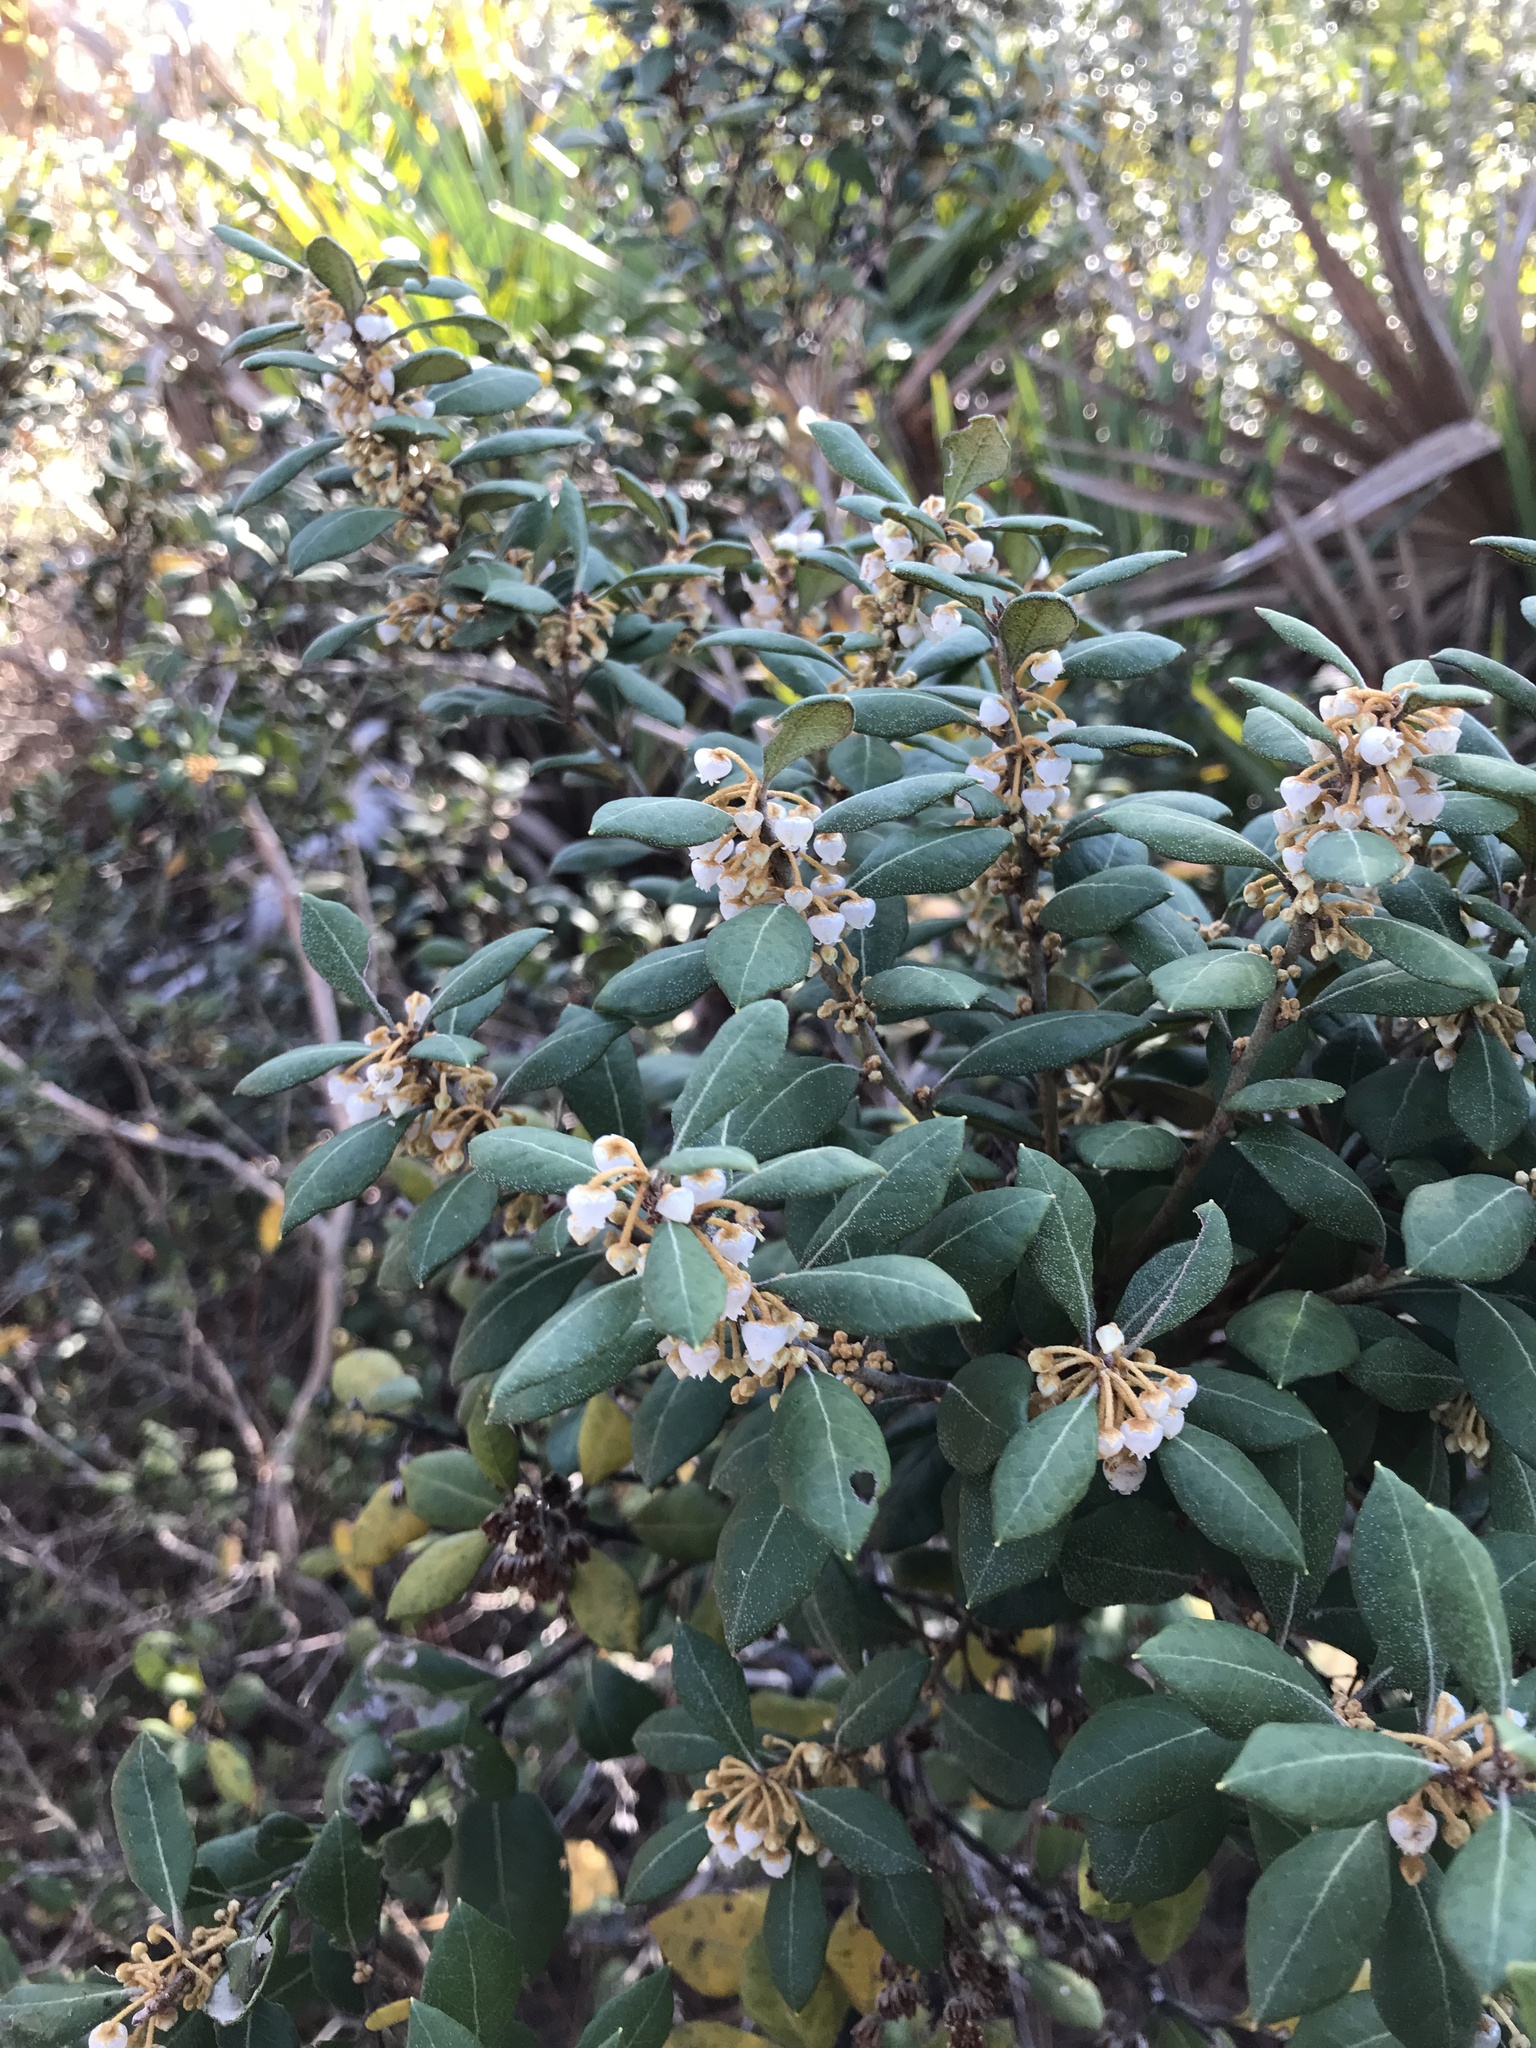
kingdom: Plantae
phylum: Tracheophyta
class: Magnoliopsida
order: Ericales
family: Ericaceae
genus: Lyonia
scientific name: Lyonia ferruginea
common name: Rusty lyonia
